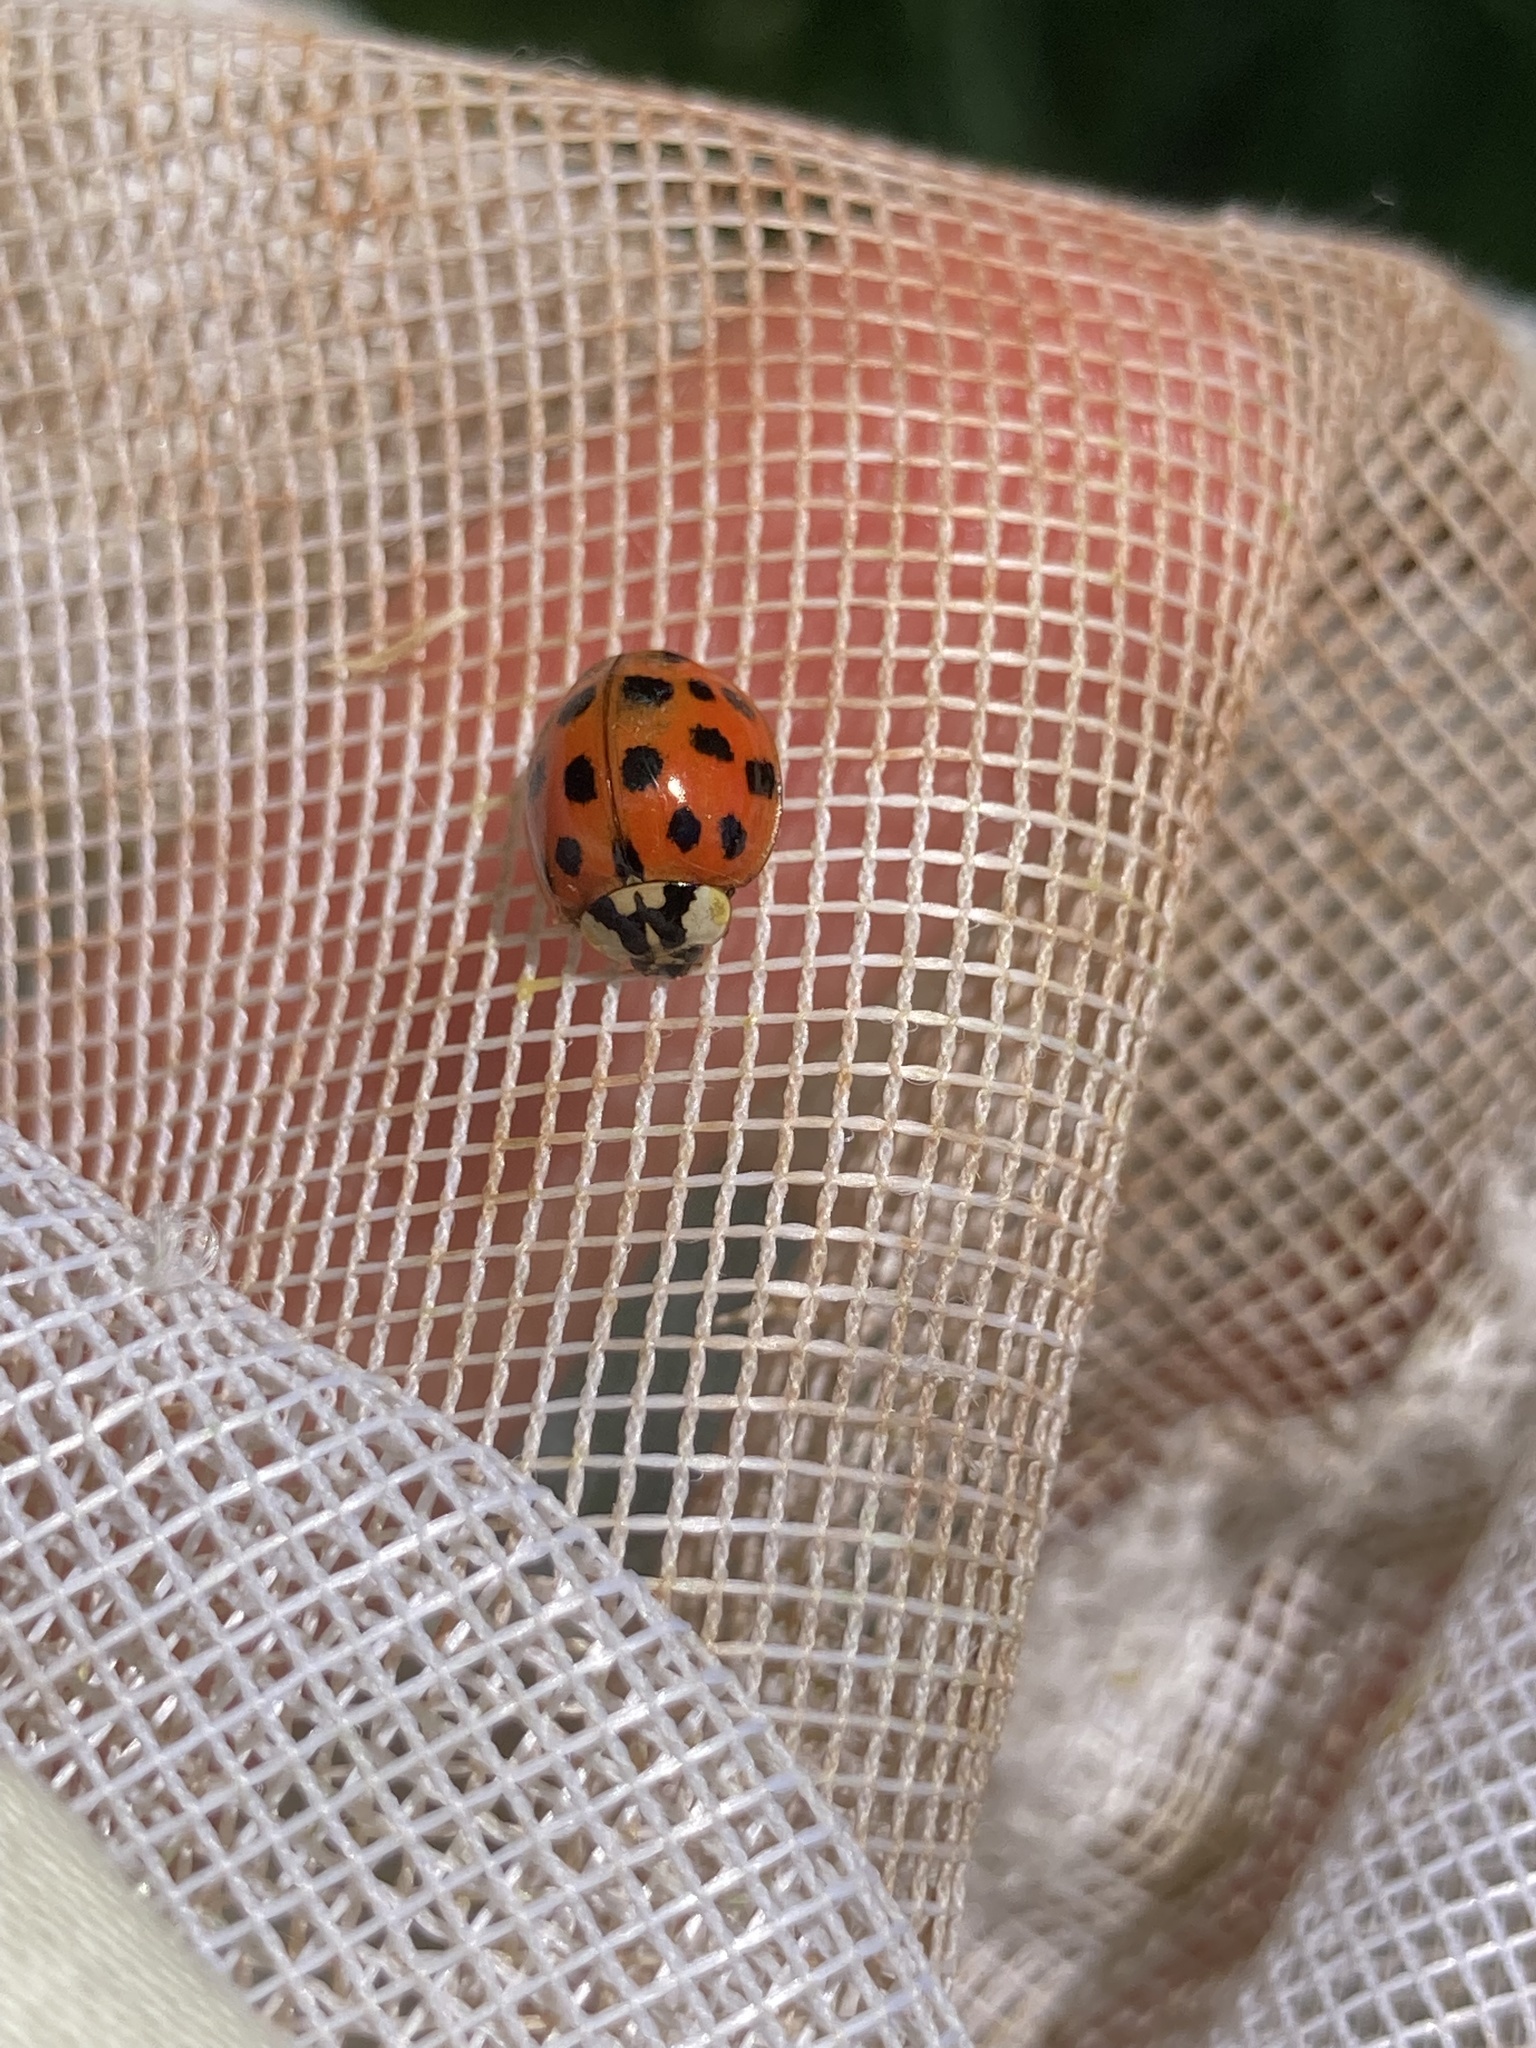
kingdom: Animalia
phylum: Arthropoda
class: Insecta
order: Coleoptera
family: Coccinellidae
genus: Harmonia
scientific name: Harmonia axyridis
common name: Harlequin ladybird
